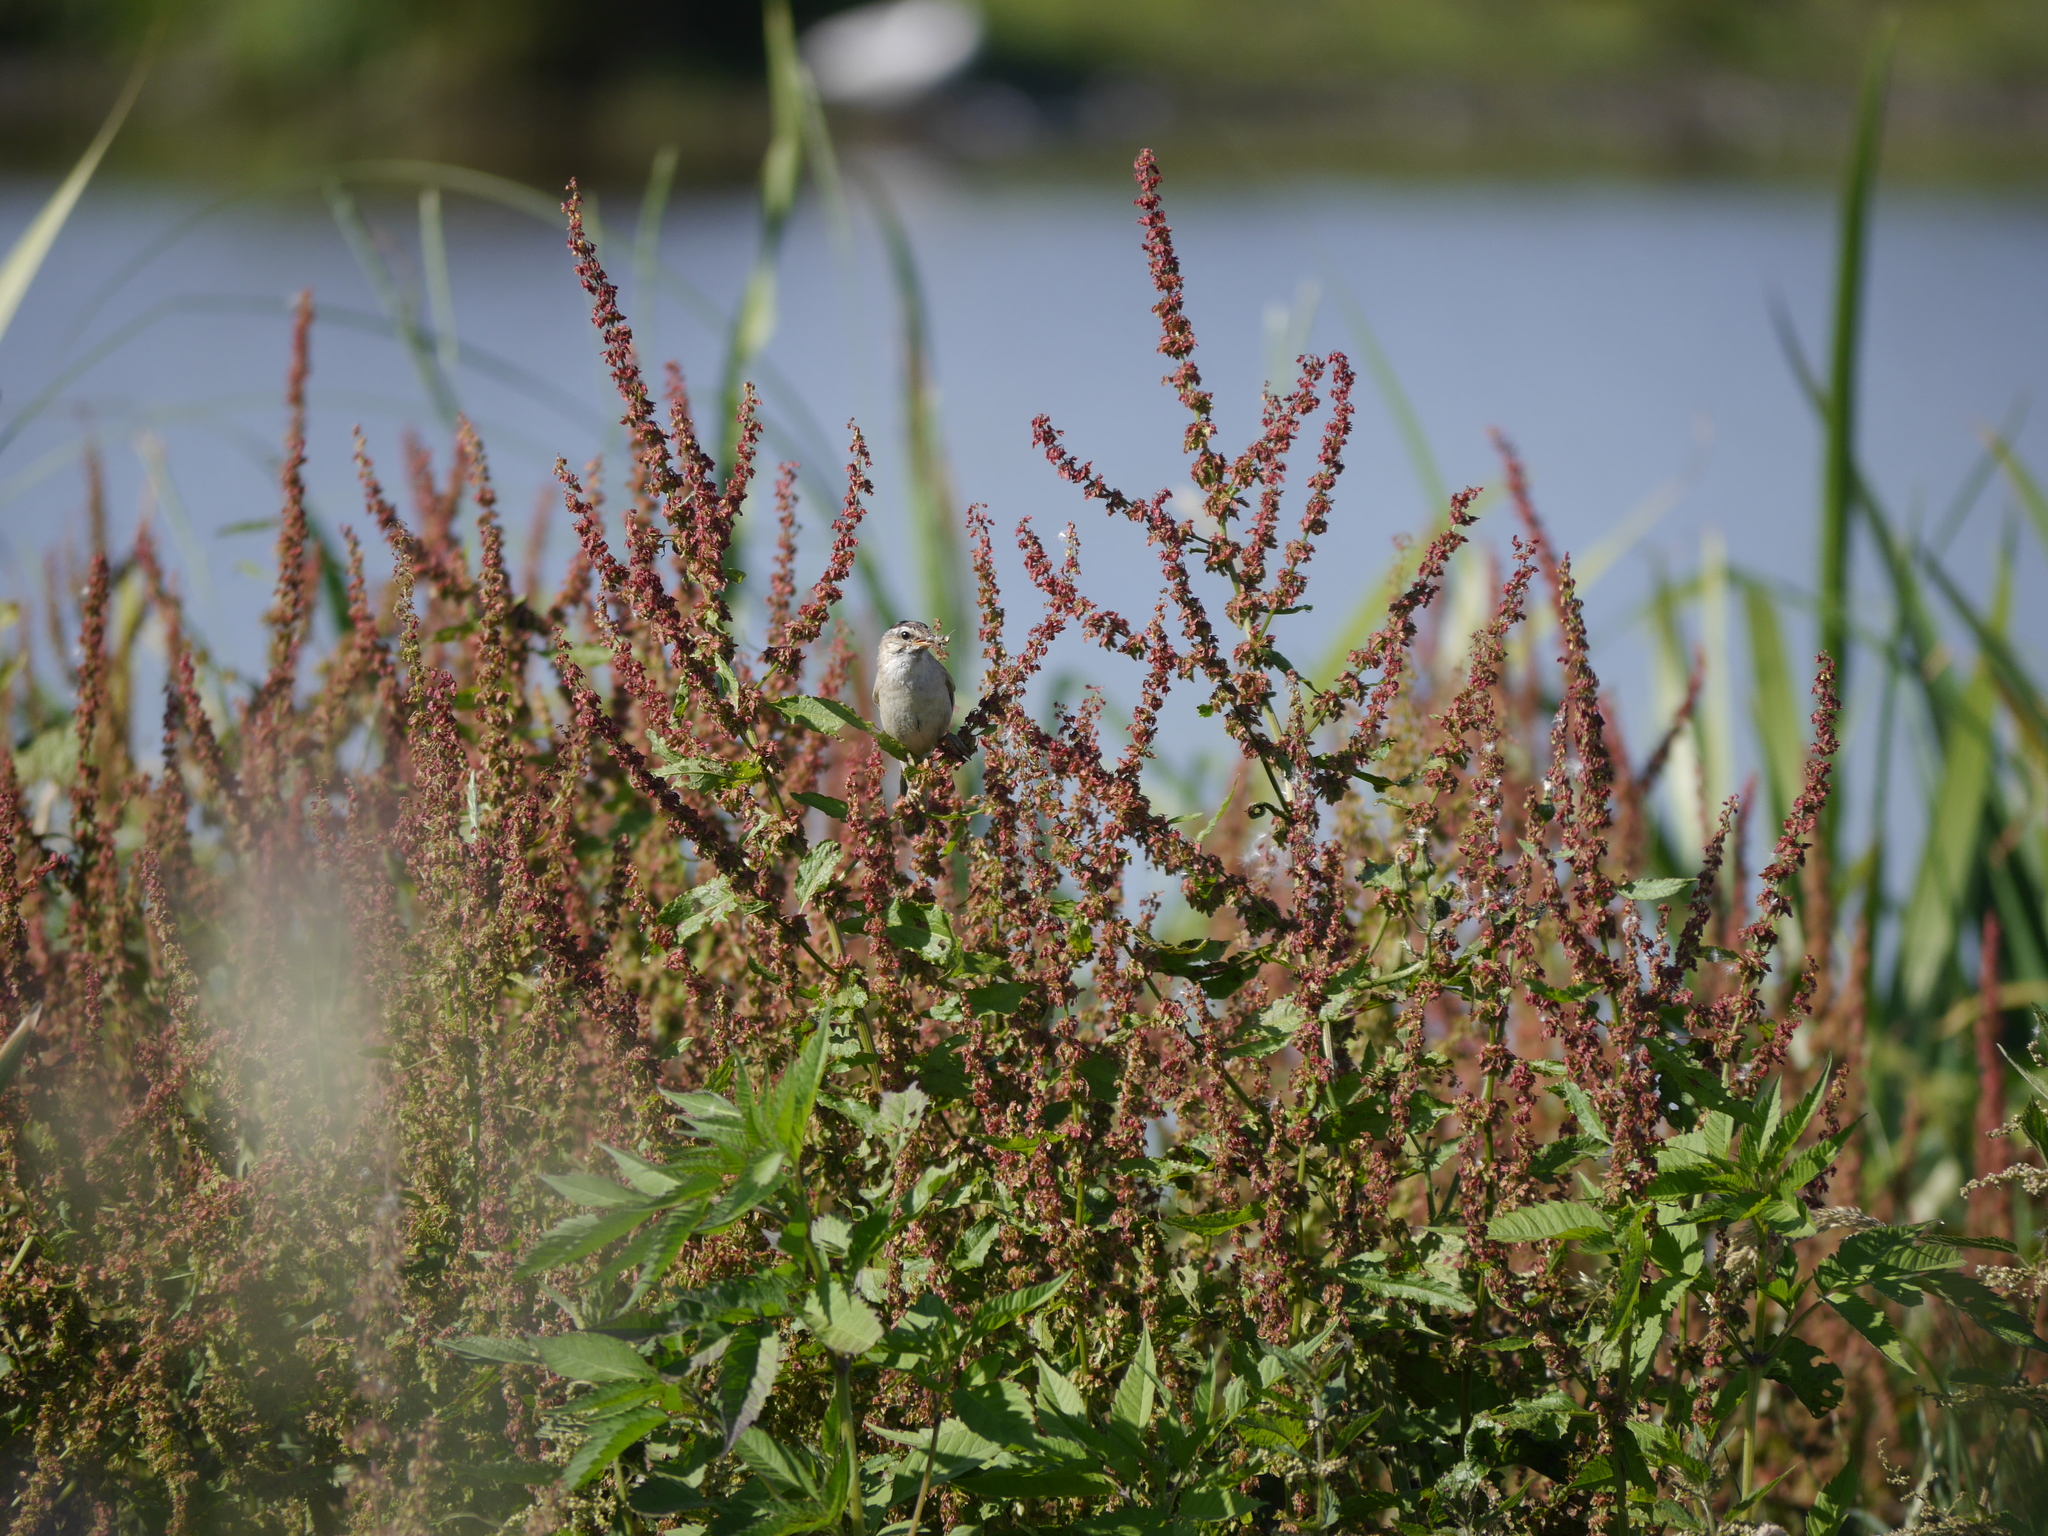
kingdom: Animalia
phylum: Chordata
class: Aves
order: Passeriformes
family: Acrocephalidae
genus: Acrocephalus
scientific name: Acrocephalus schoenobaenus
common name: Sedge warbler
